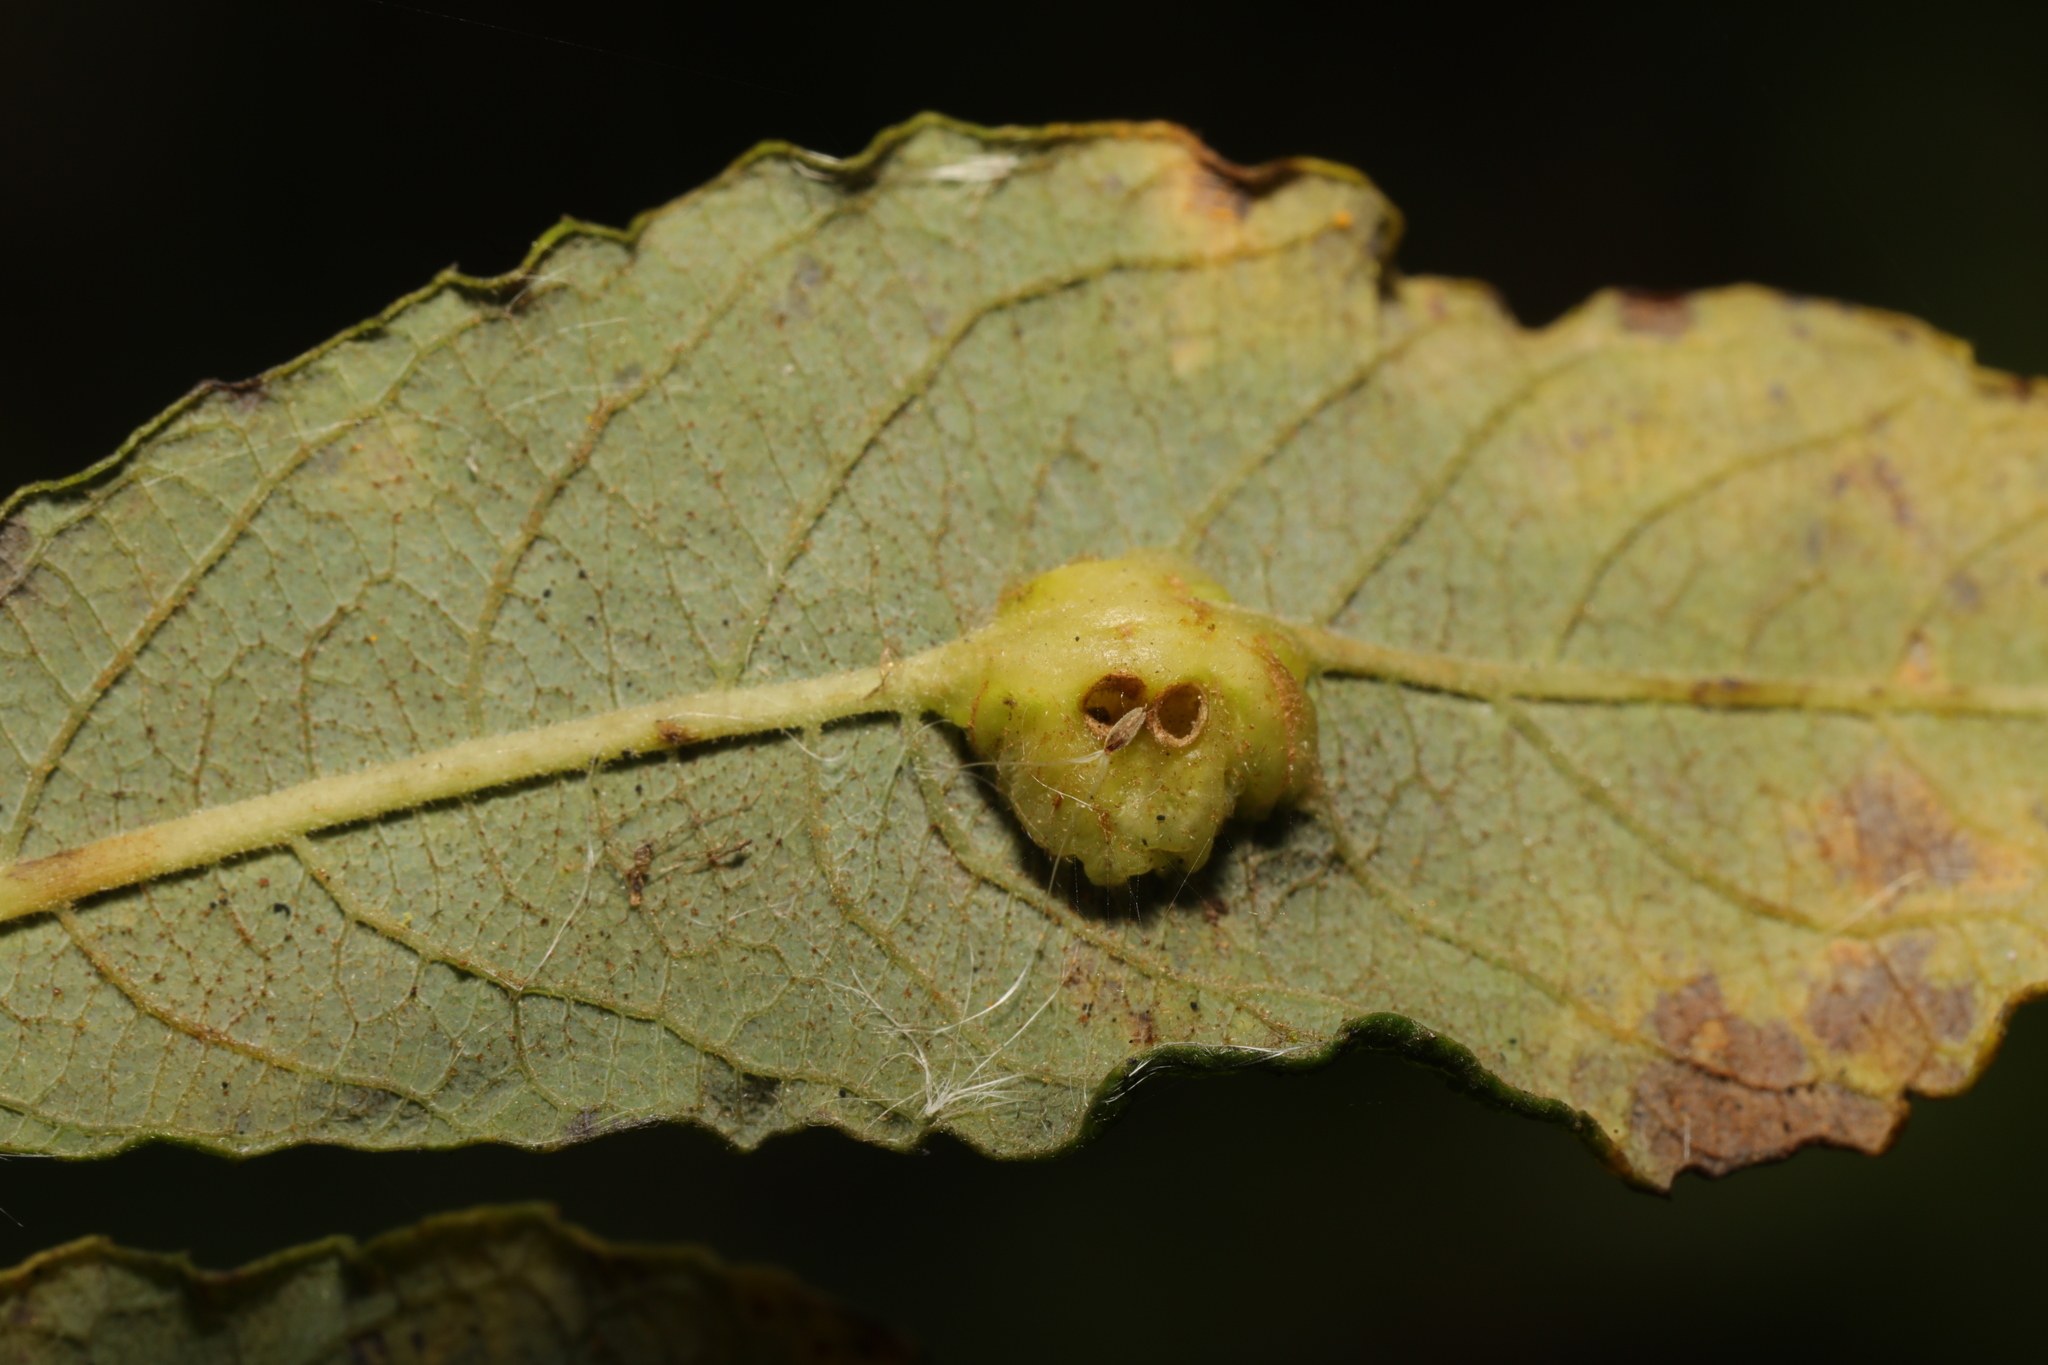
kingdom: Animalia
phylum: Arthropoda
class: Insecta
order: Diptera
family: Cecidomyiidae
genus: Iteomyia
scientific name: Iteomyia major
